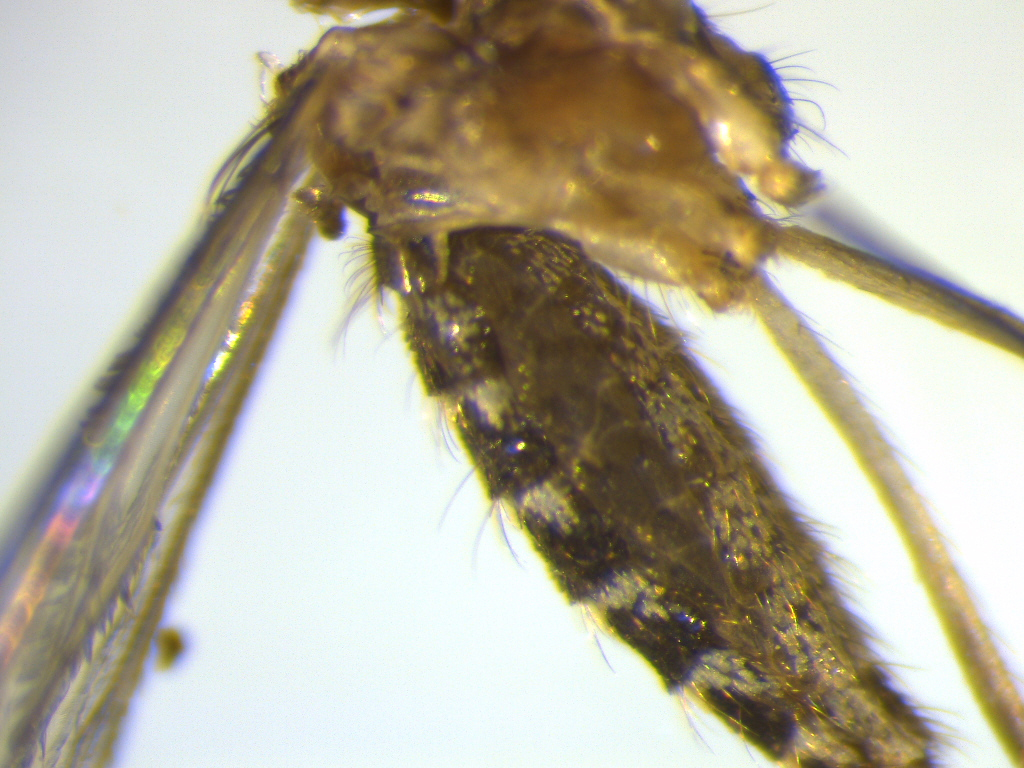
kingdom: Animalia
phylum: Arthropoda
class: Insecta
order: Diptera
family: Culicidae
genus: Culex
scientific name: Culex quinquefasciatus
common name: Southern house mosquito
